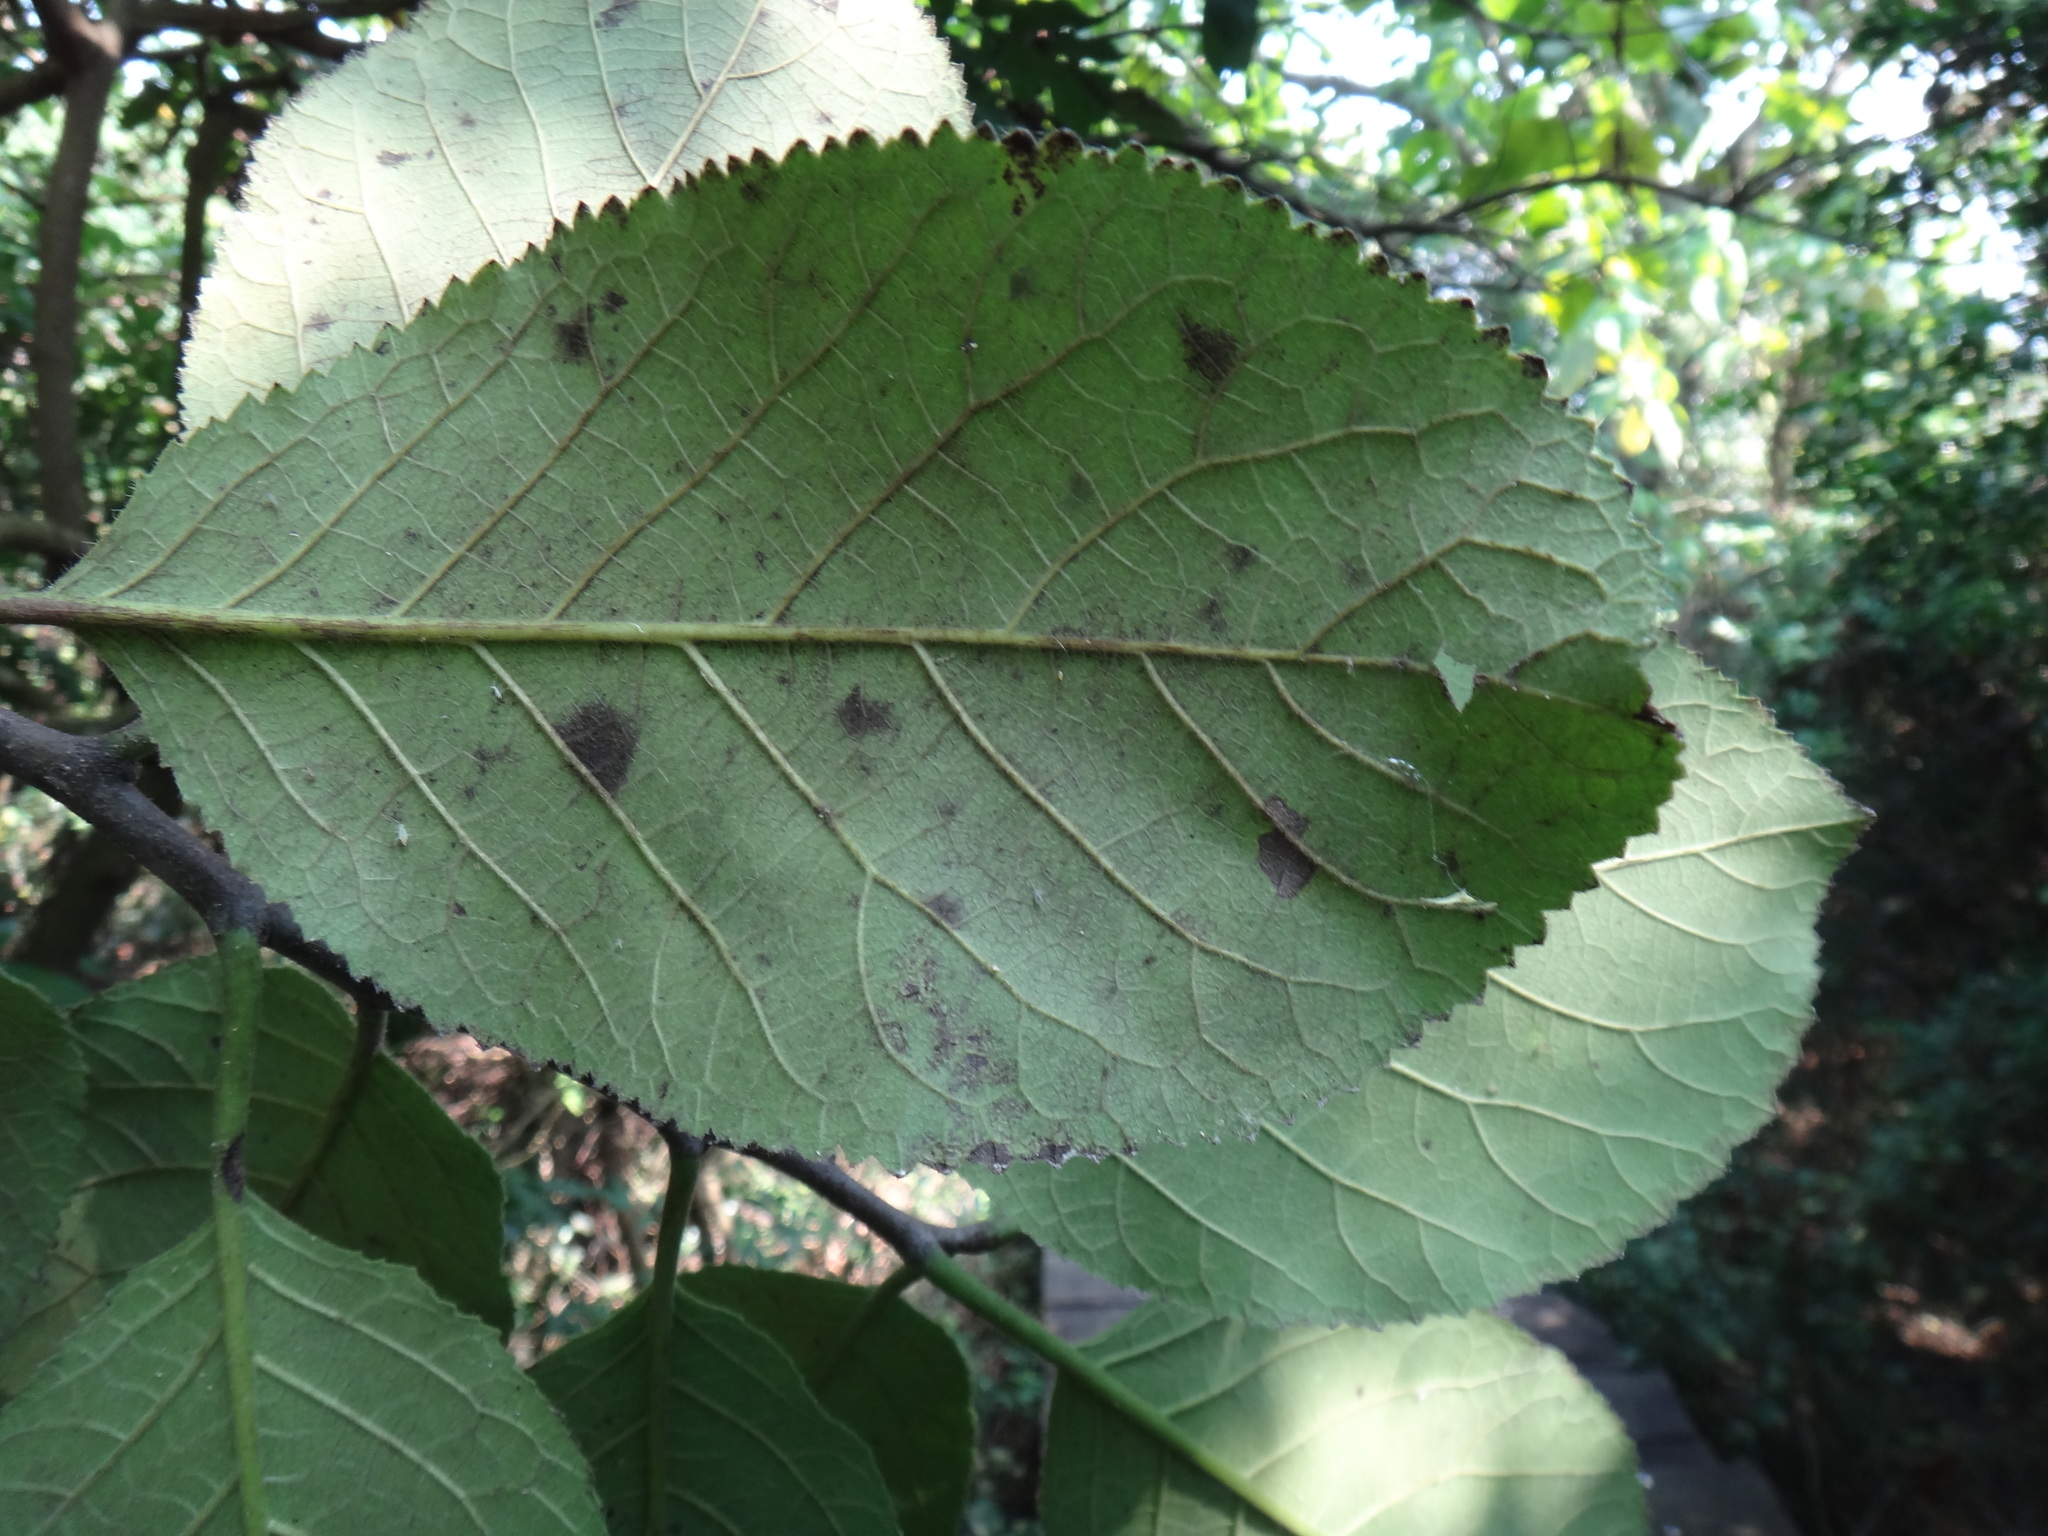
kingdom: Plantae
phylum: Tracheophyta
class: Magnoliopsida
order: Boraginales
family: Ehretiaceae
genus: Ehretia
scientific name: Ehretia dicksonii
